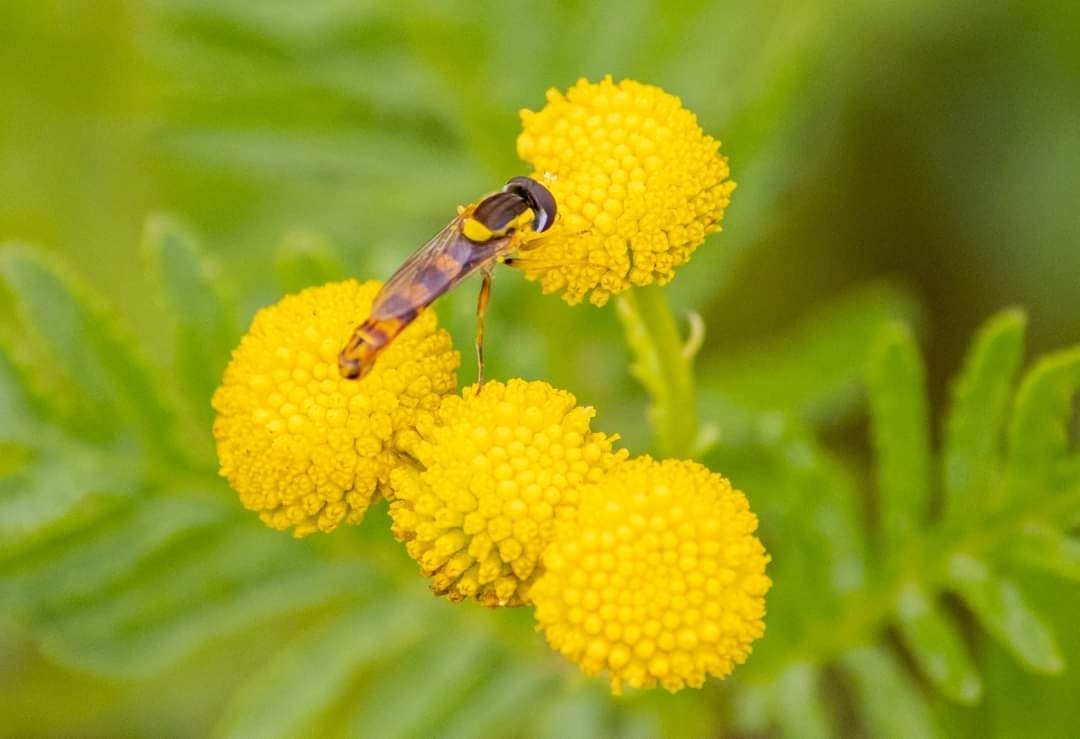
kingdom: Animalia
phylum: Arthropoda
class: Insecta
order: Diptera
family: Syrphidae
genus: Sphaerophoria
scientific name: Sphaerophoria scripta
